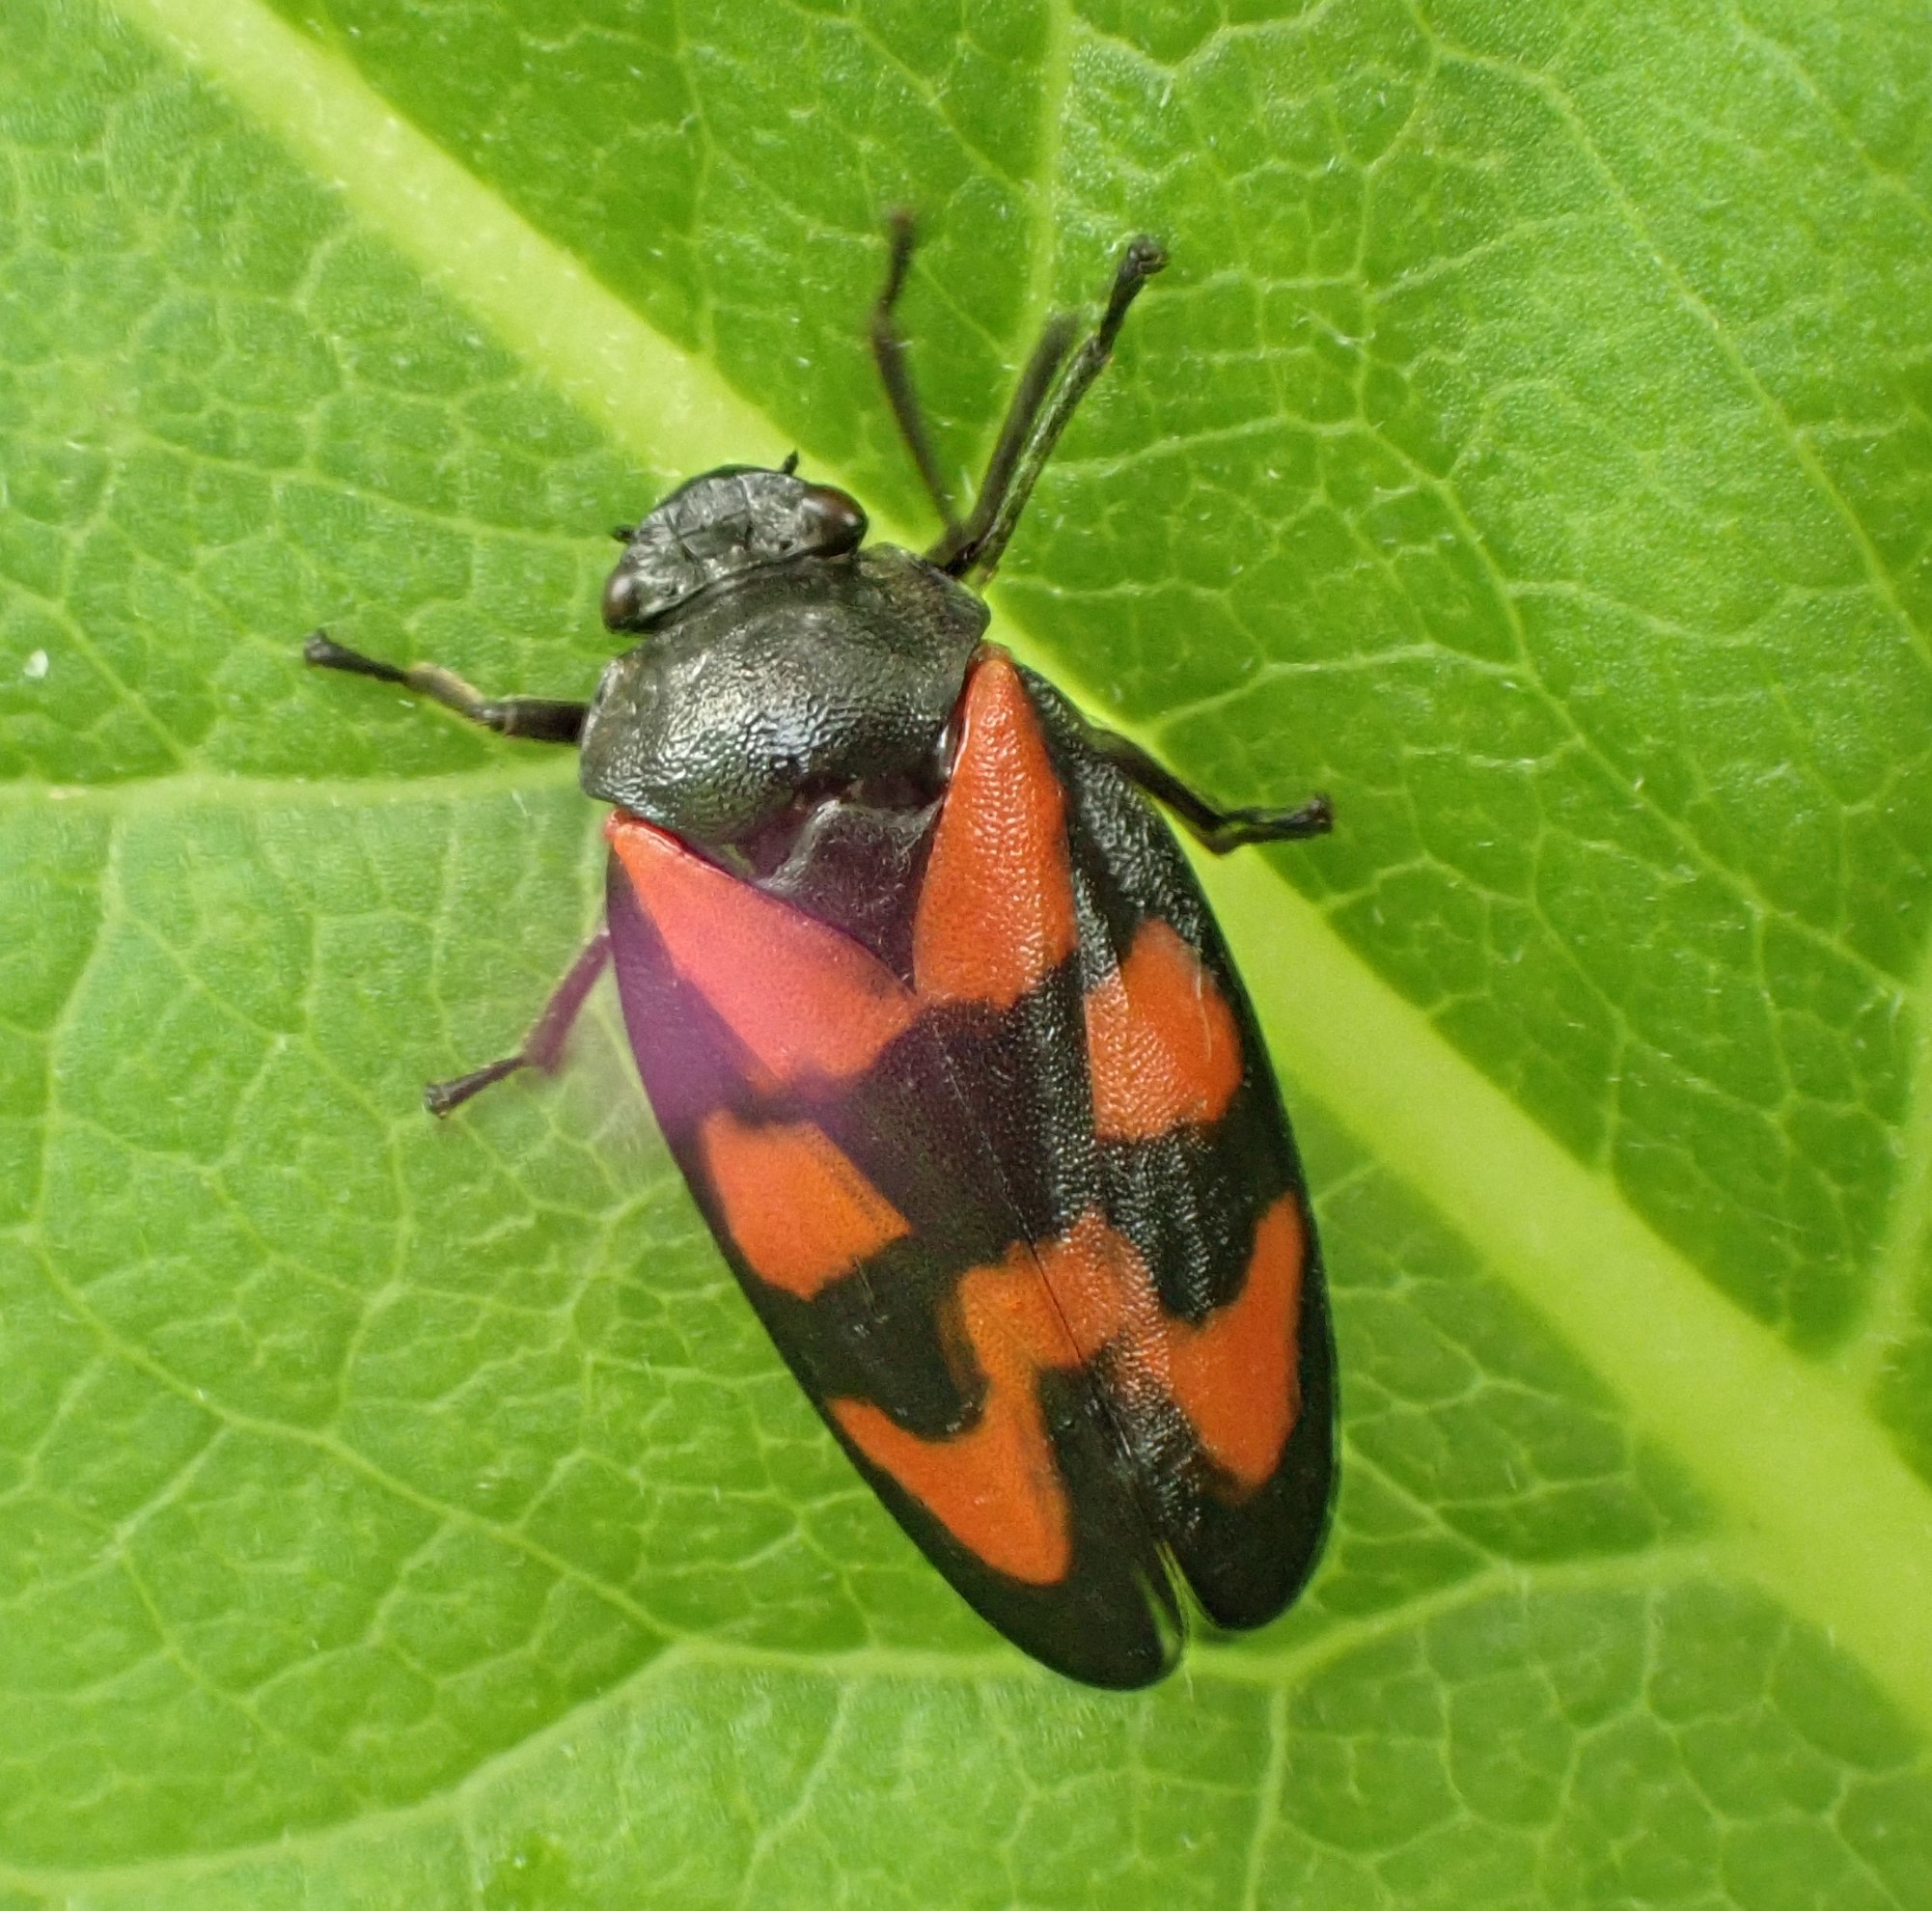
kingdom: Animalia
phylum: Arthropoda
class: Insecta
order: Hemiptera
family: Cercopidae
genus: Cercopis
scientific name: Cercopis vulnerata
